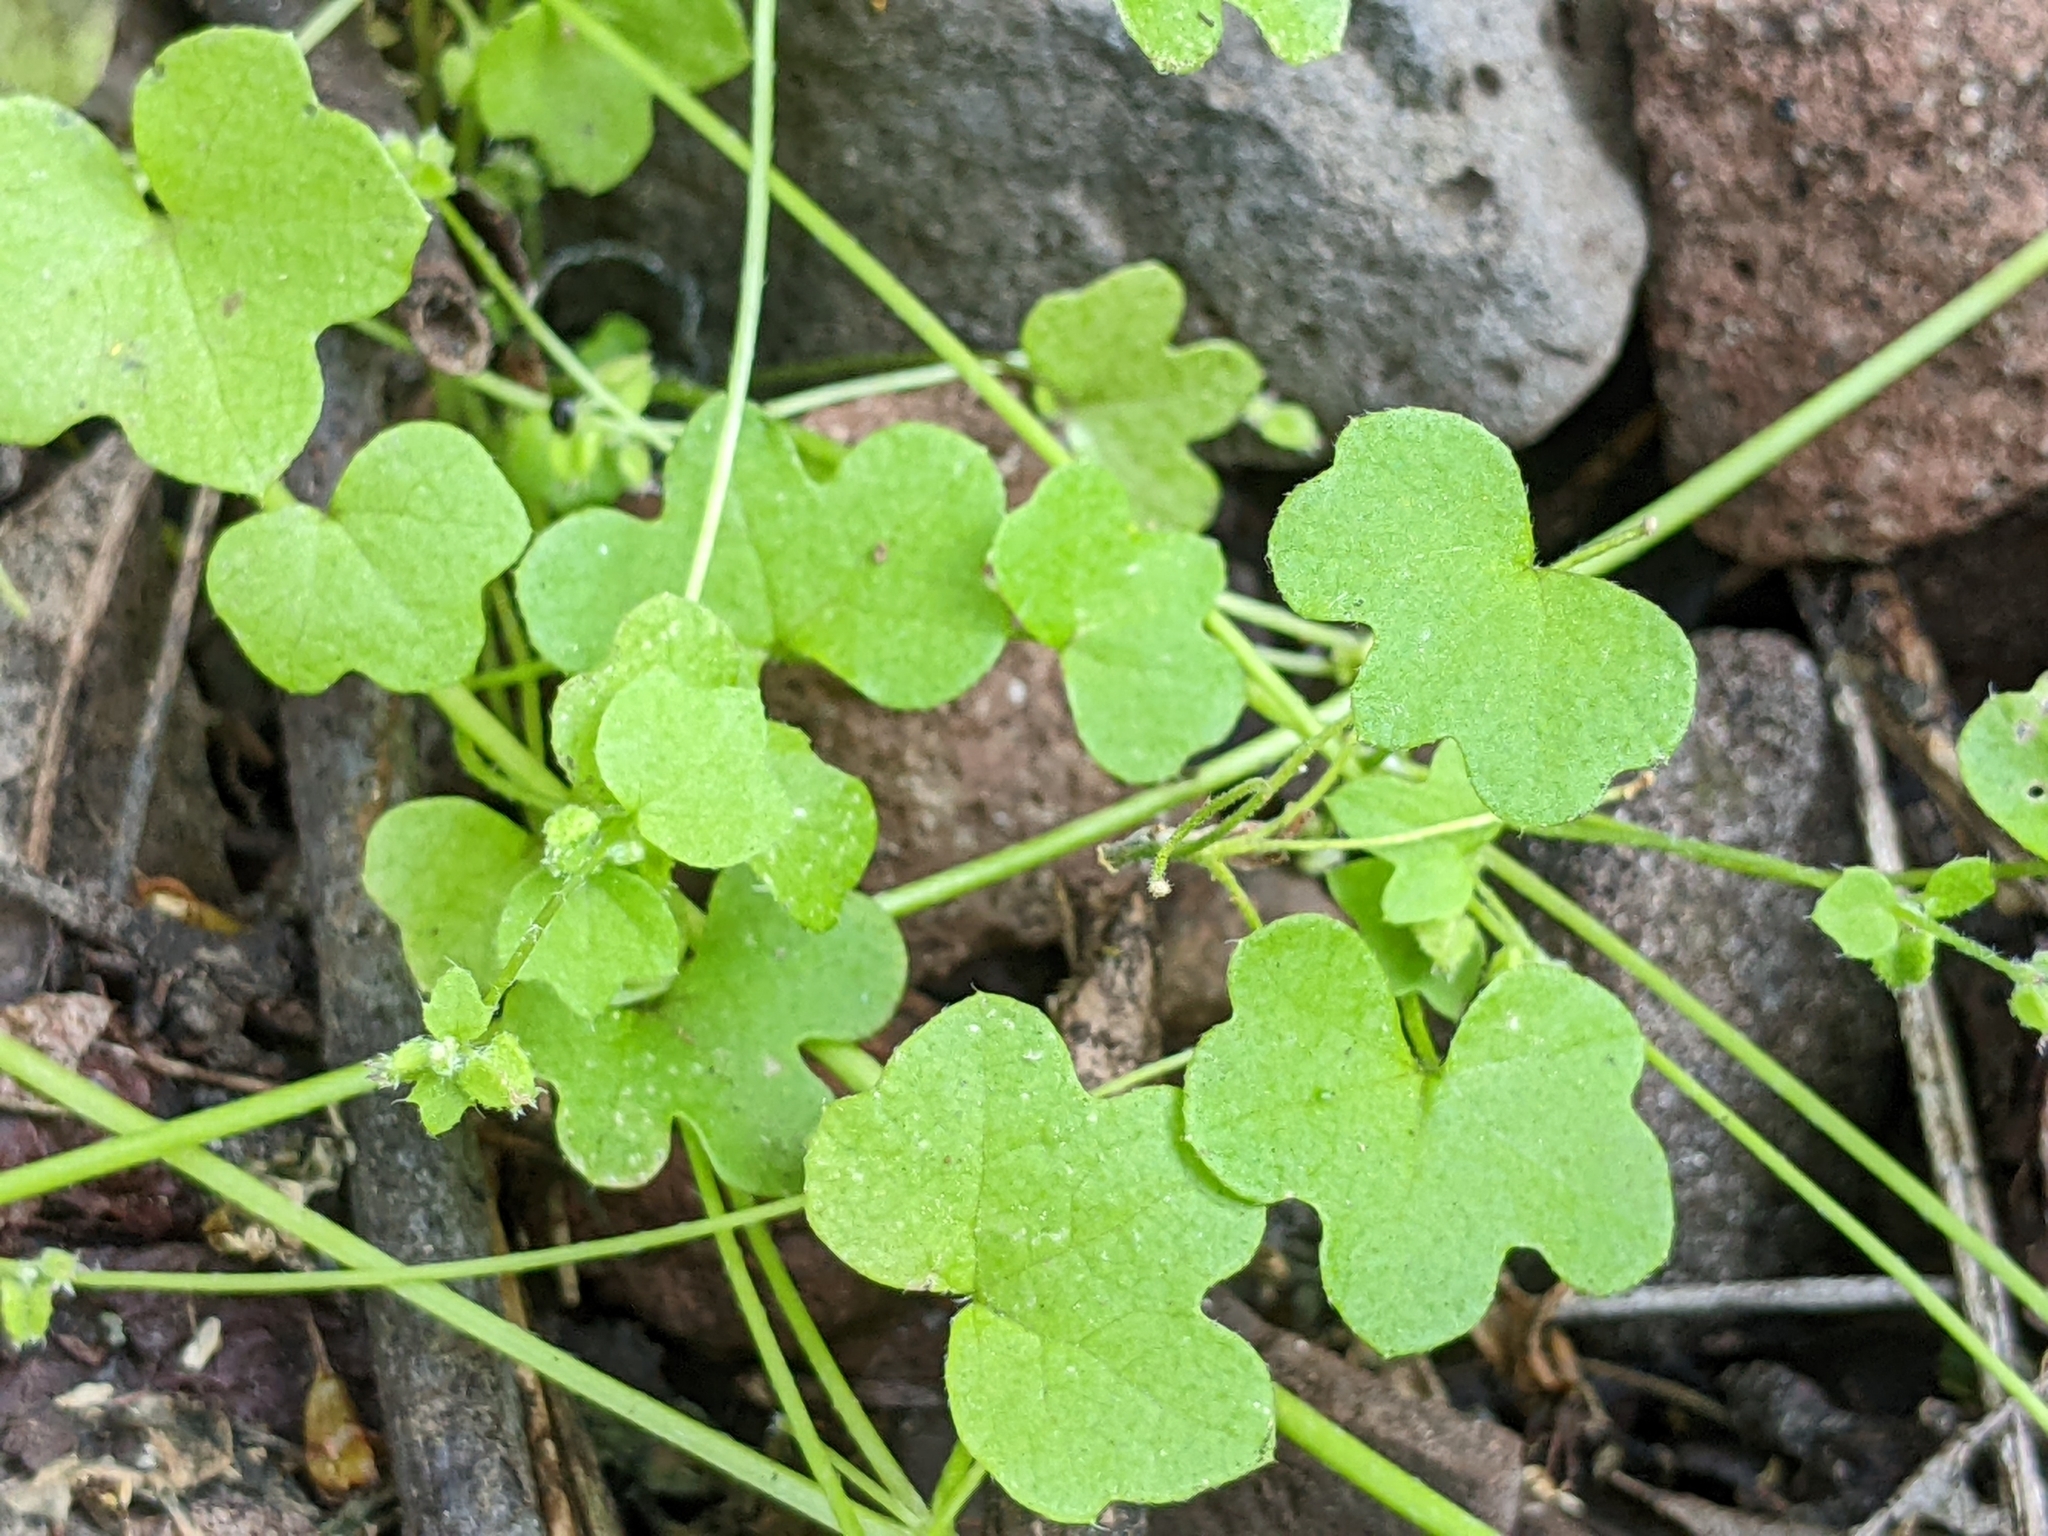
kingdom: Plantae
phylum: Tracheophyta
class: Magnoliopsida
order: Apiales
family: Apiaceae
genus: Bowlesia
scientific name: Bowlesia incana
